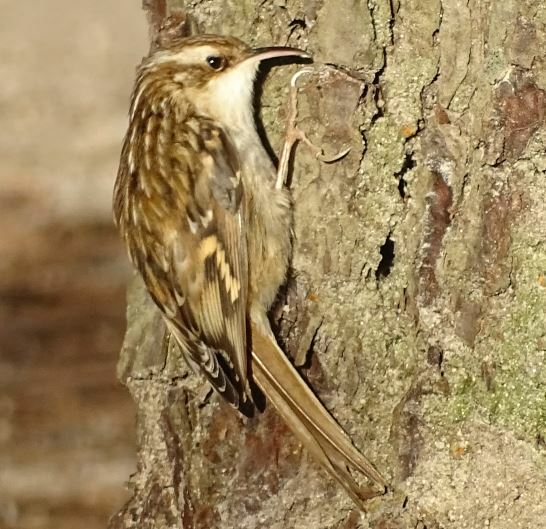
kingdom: Animalia
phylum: Chordata
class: Aves
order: Passeriformes
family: Certhiidae
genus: Certhia
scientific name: Certhia brachydactyla
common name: Short-toed treecreeper
